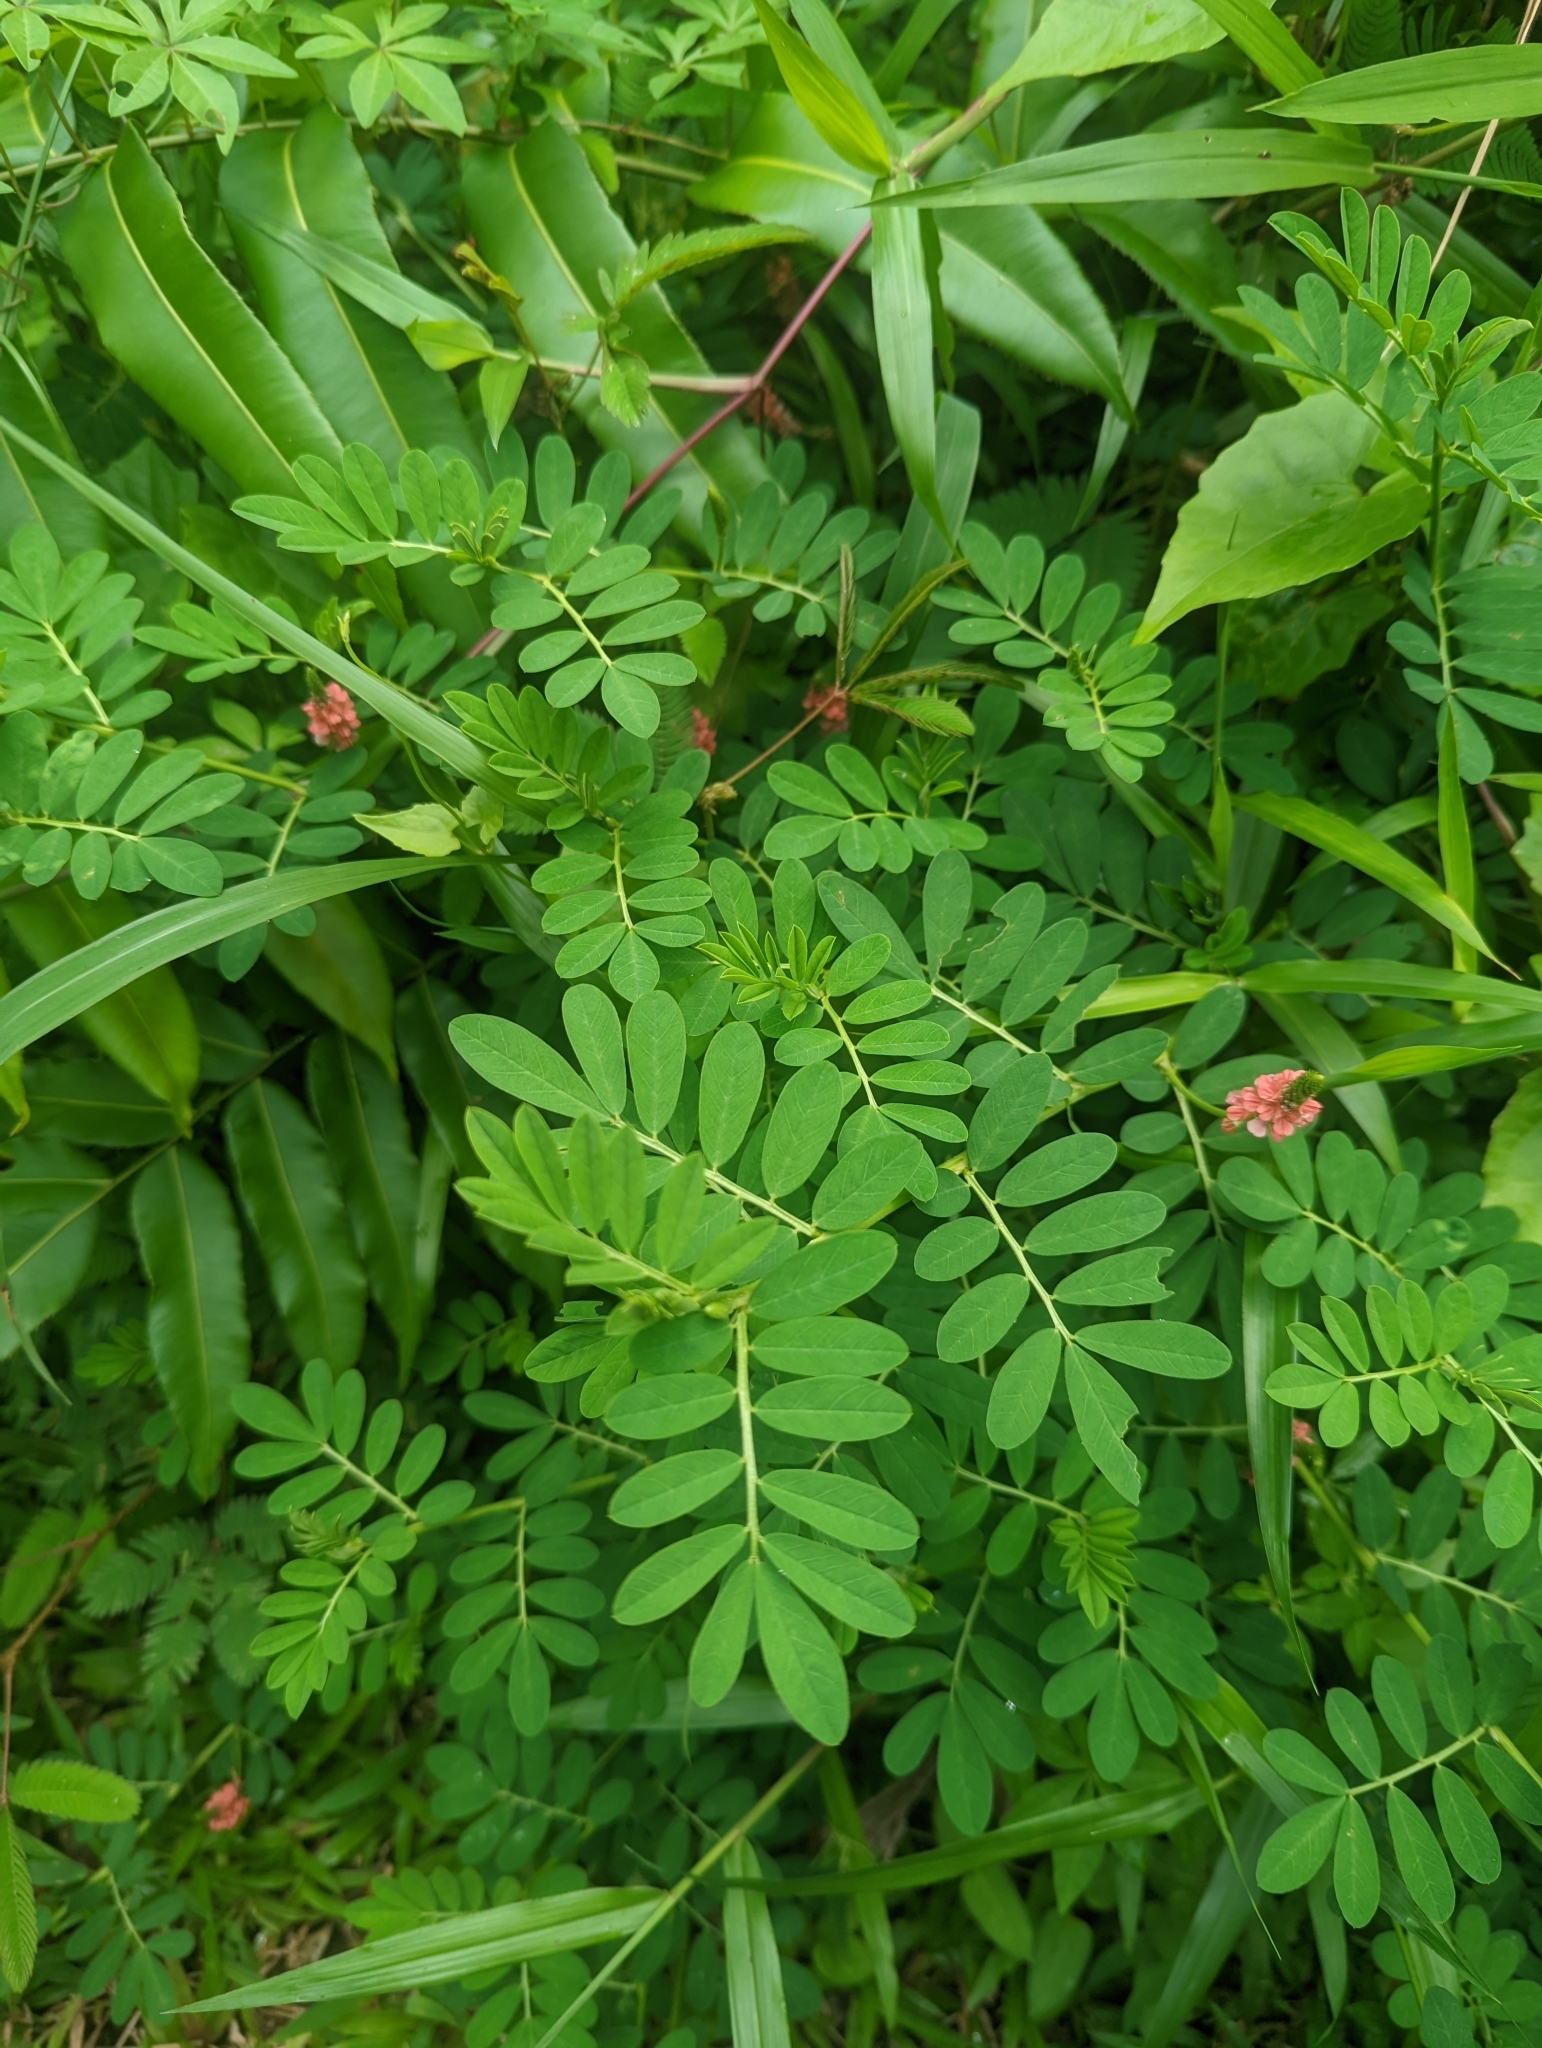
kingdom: Plantae
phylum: Tracheophyta
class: Magnoliopsida
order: Fabales
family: Fabaceae
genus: Indigofera
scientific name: Indigofera hendecaphylla
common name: Trailing indigo
